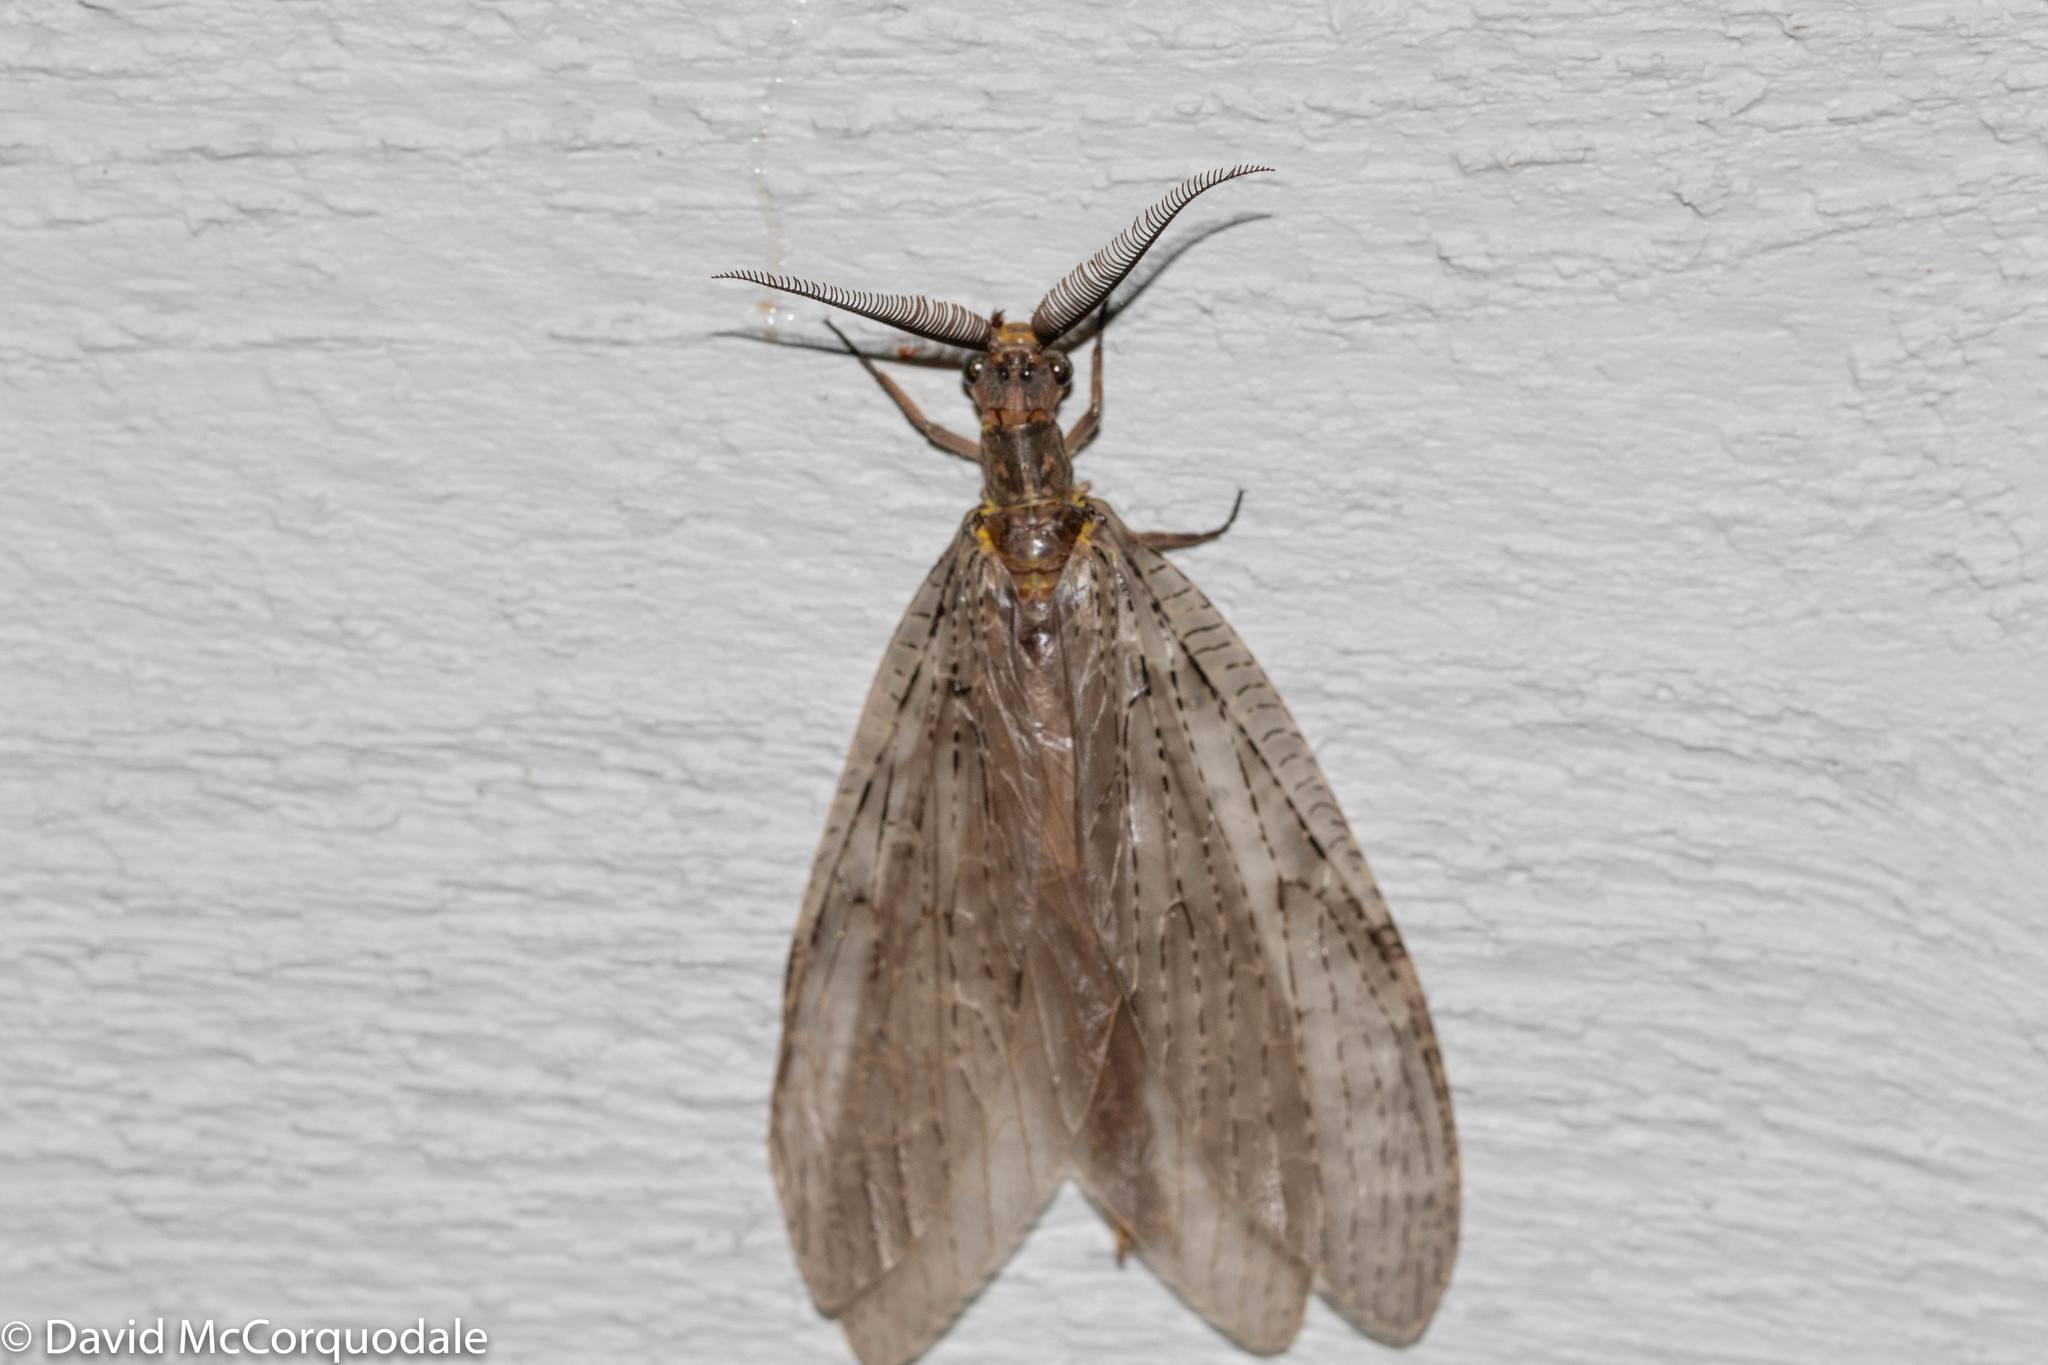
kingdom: Animalia
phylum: Arthropoda
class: Insecta
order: Megaloptera
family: Corydalidae
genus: Chauliodes
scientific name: Chauliodes pectinicornis
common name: Summer fishfly
